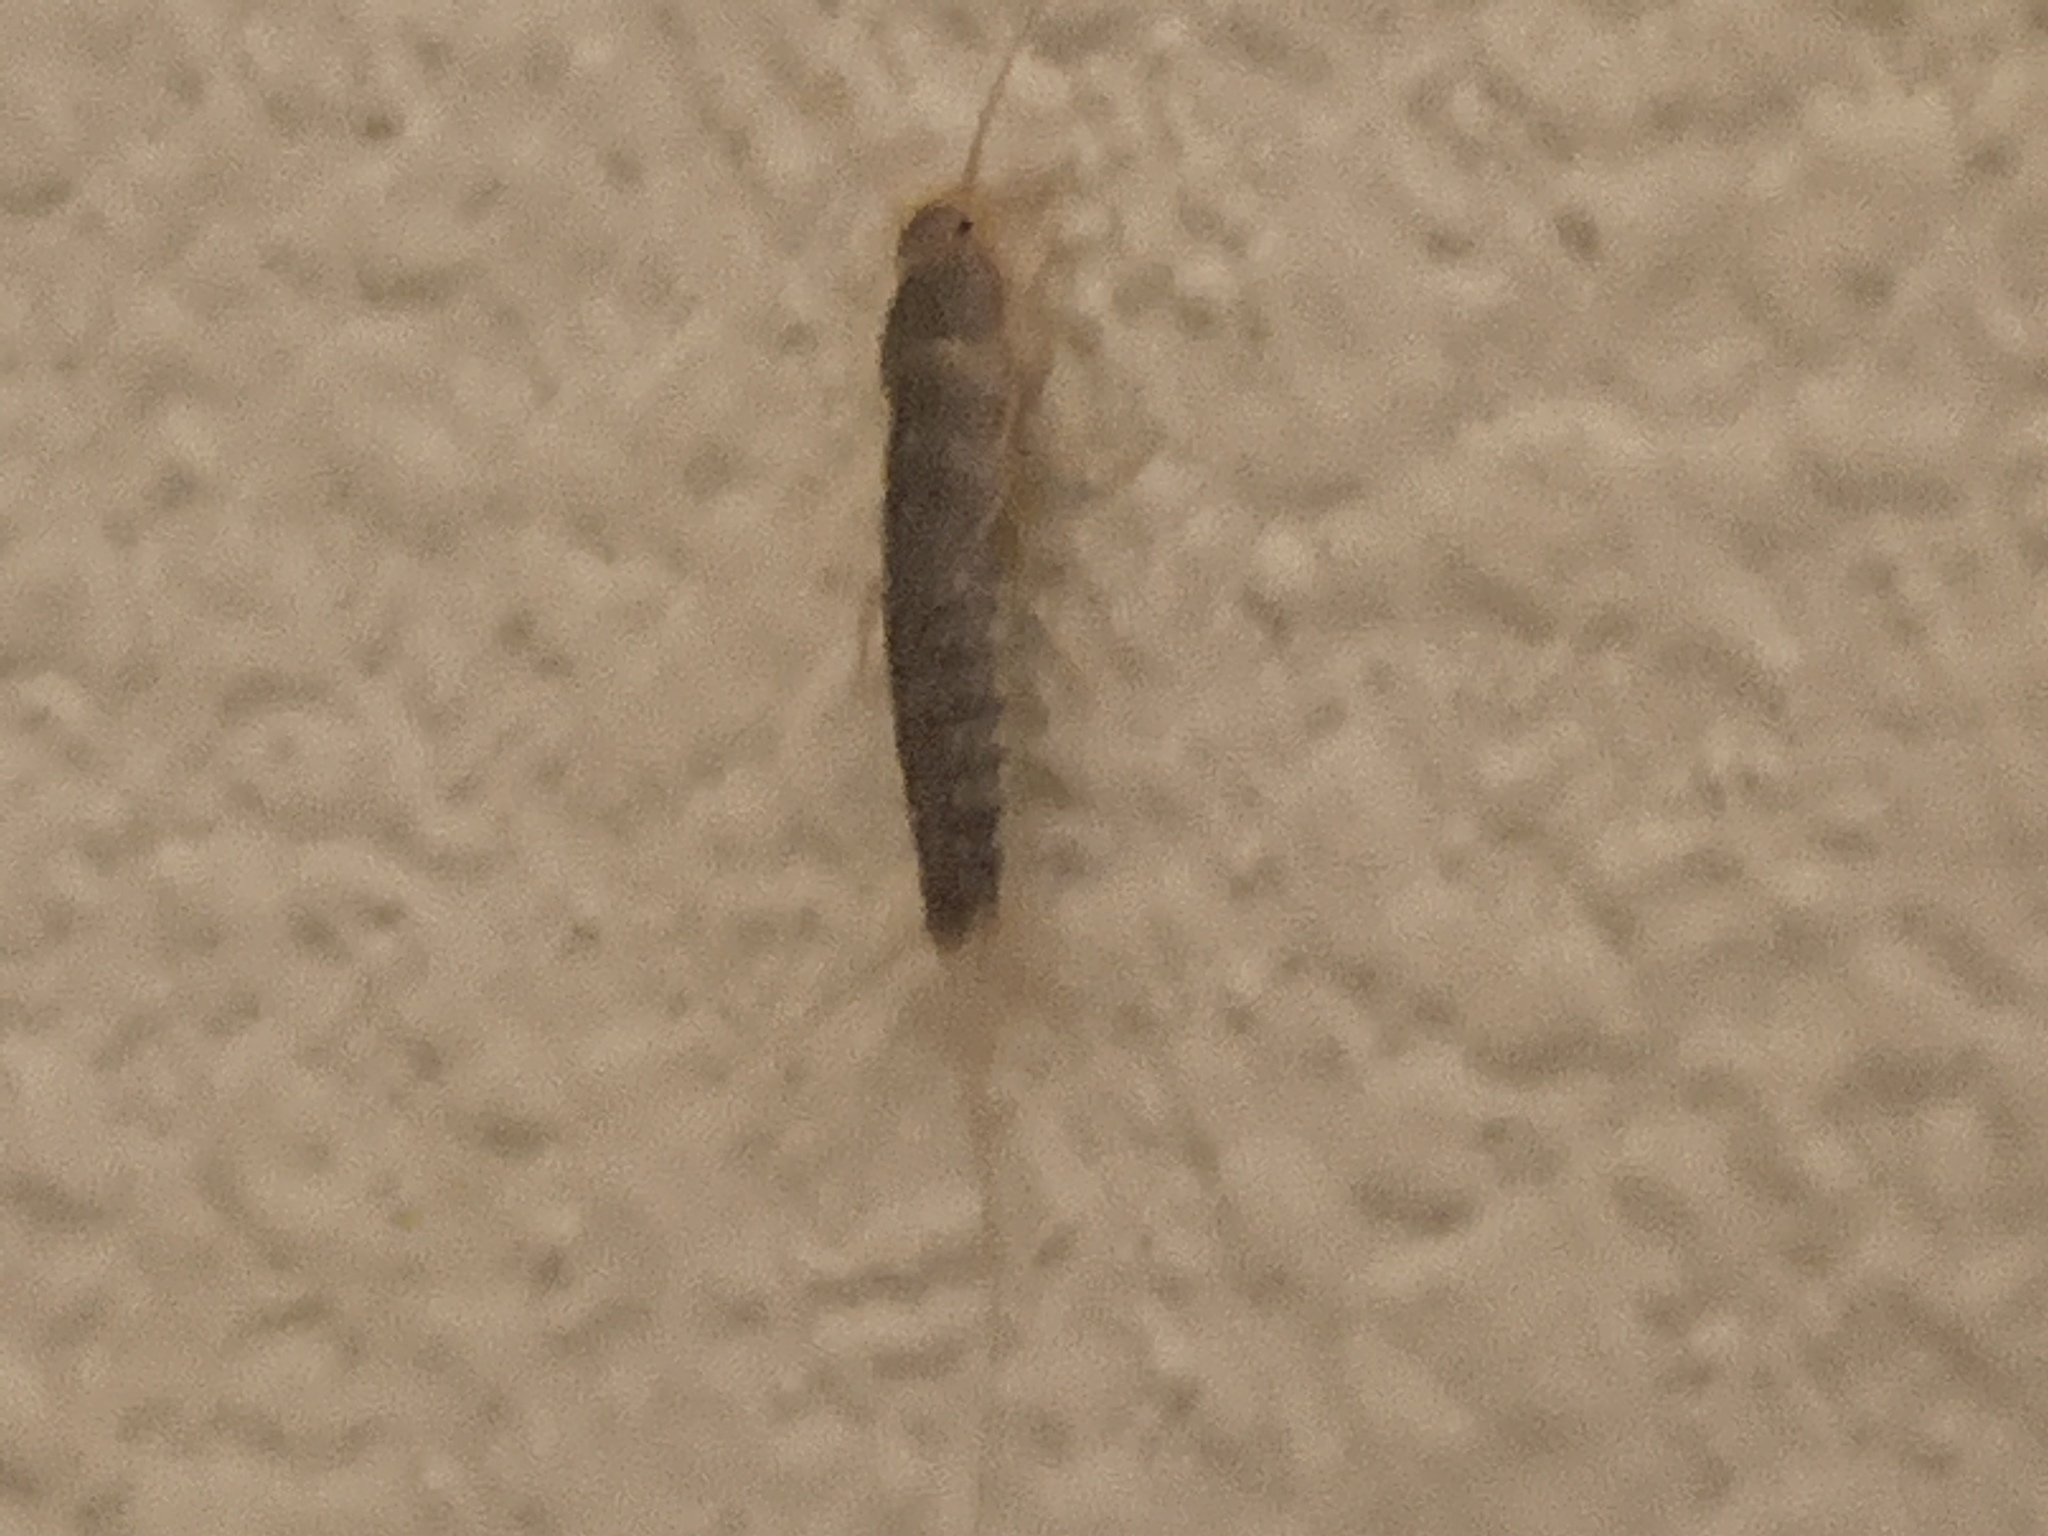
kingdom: Animalia
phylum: Arthropoda
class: Insecta
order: Zygentoma
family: Lepismatidae
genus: Ctenolepisma
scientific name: Ctenolepisma longicaudatum
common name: Silverfish
